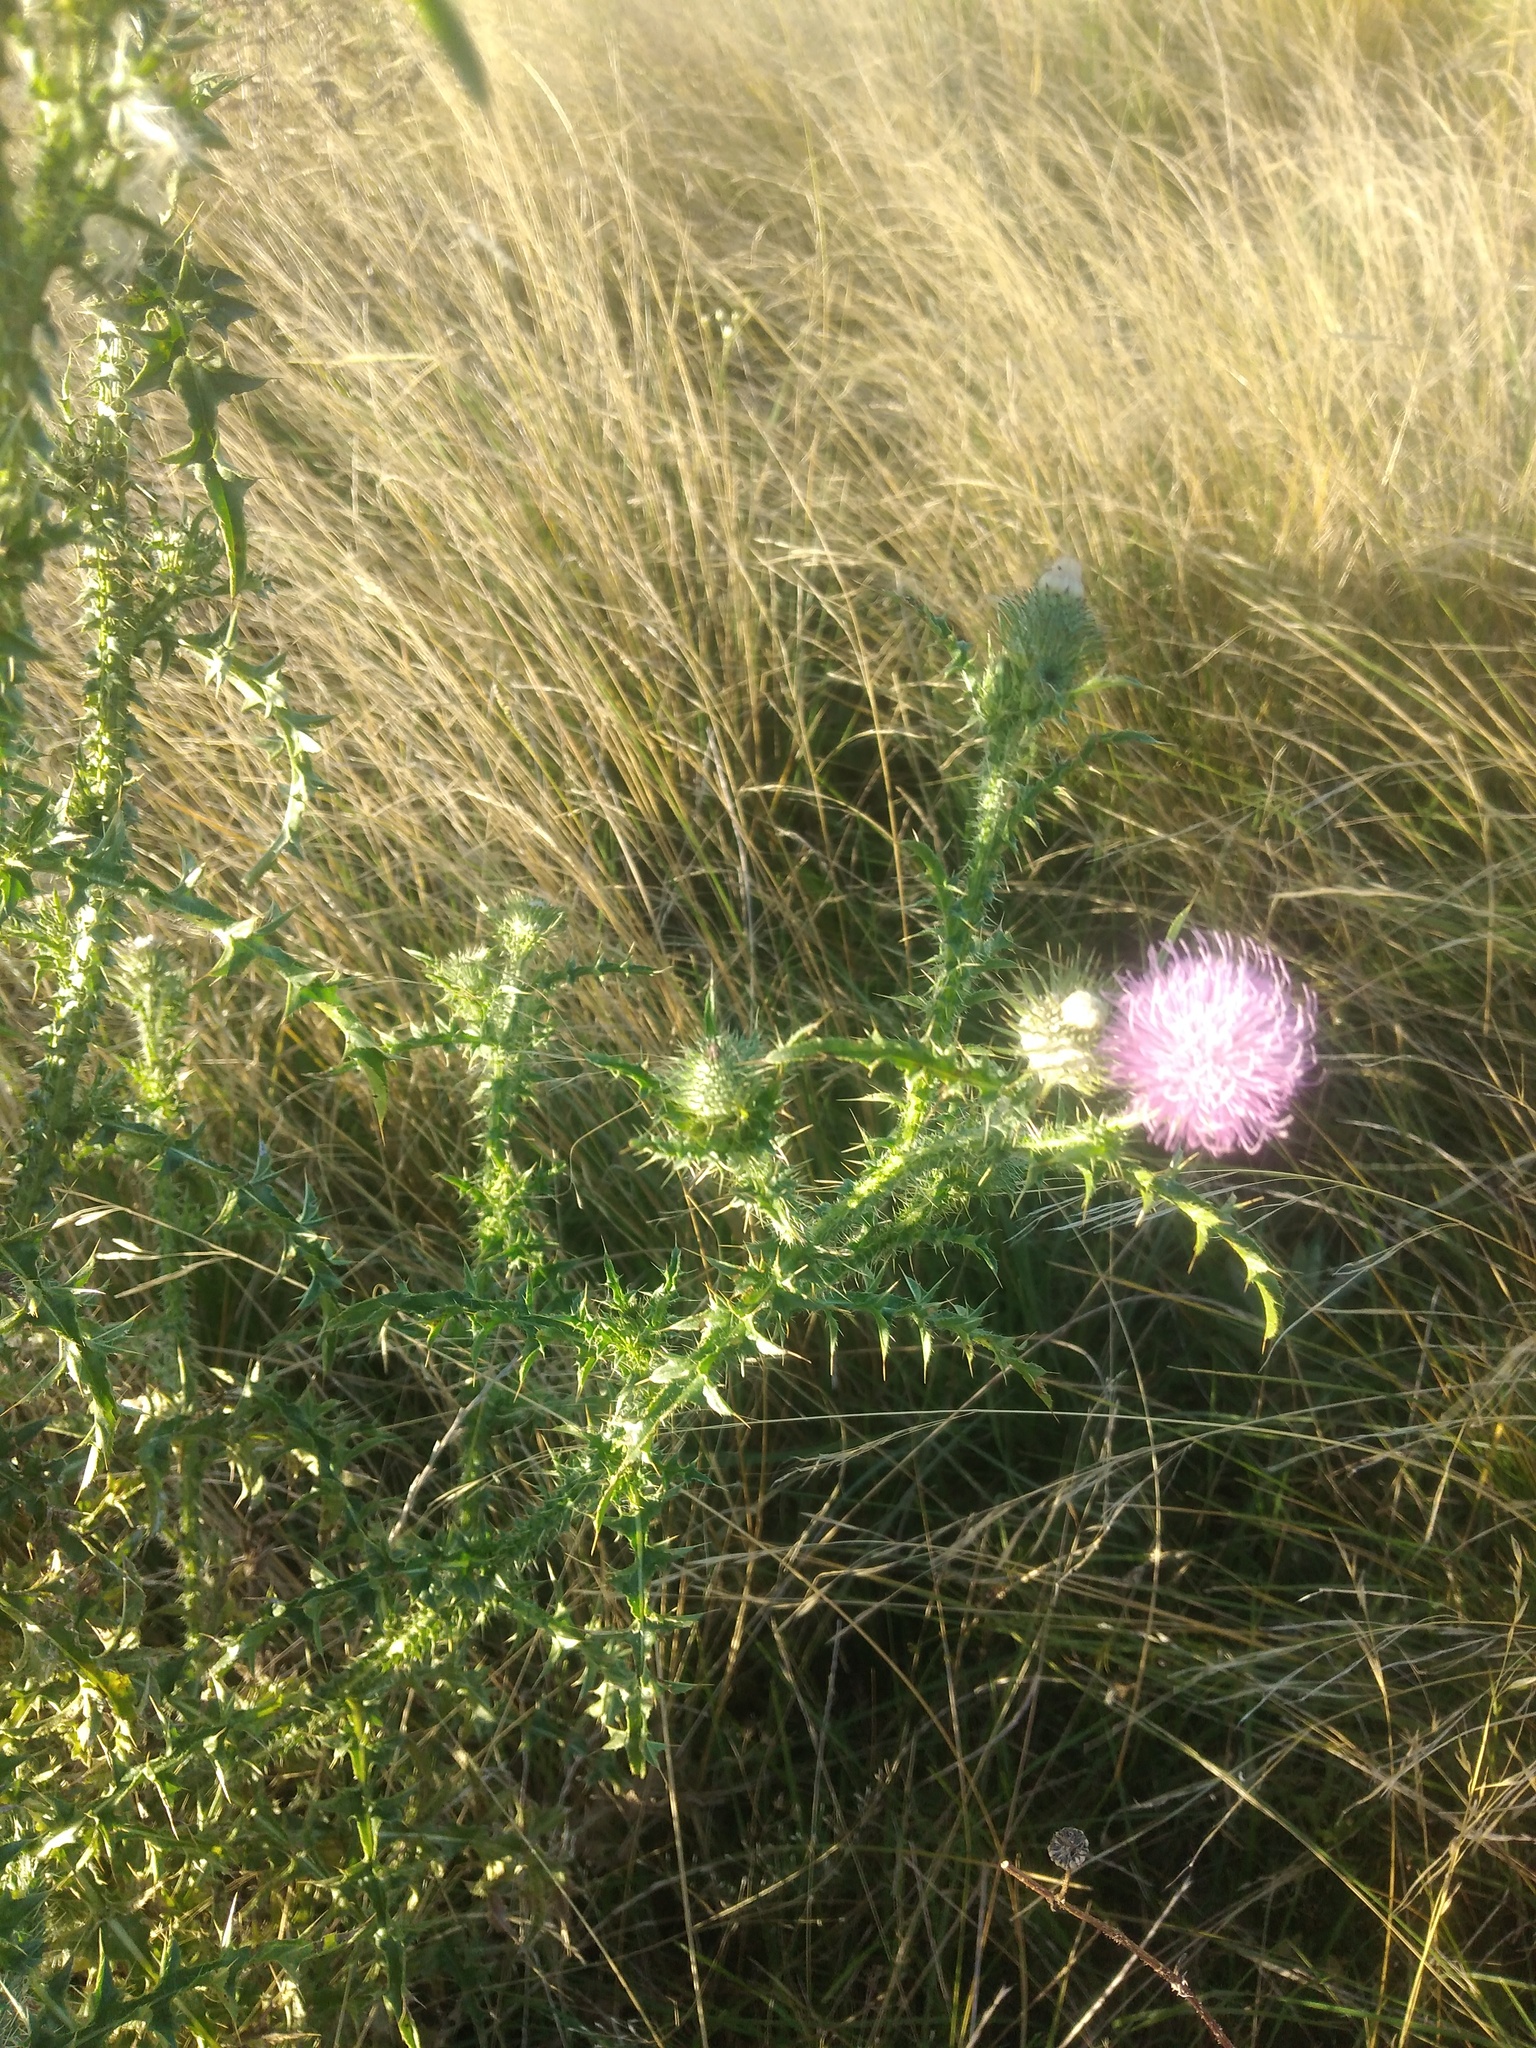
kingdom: Plantae
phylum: Tracheophyta
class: Magnoliopsida
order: Asterales
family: Asteraceae
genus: Carduus
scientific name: Carduus acanthoides
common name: Plumeless thistle
